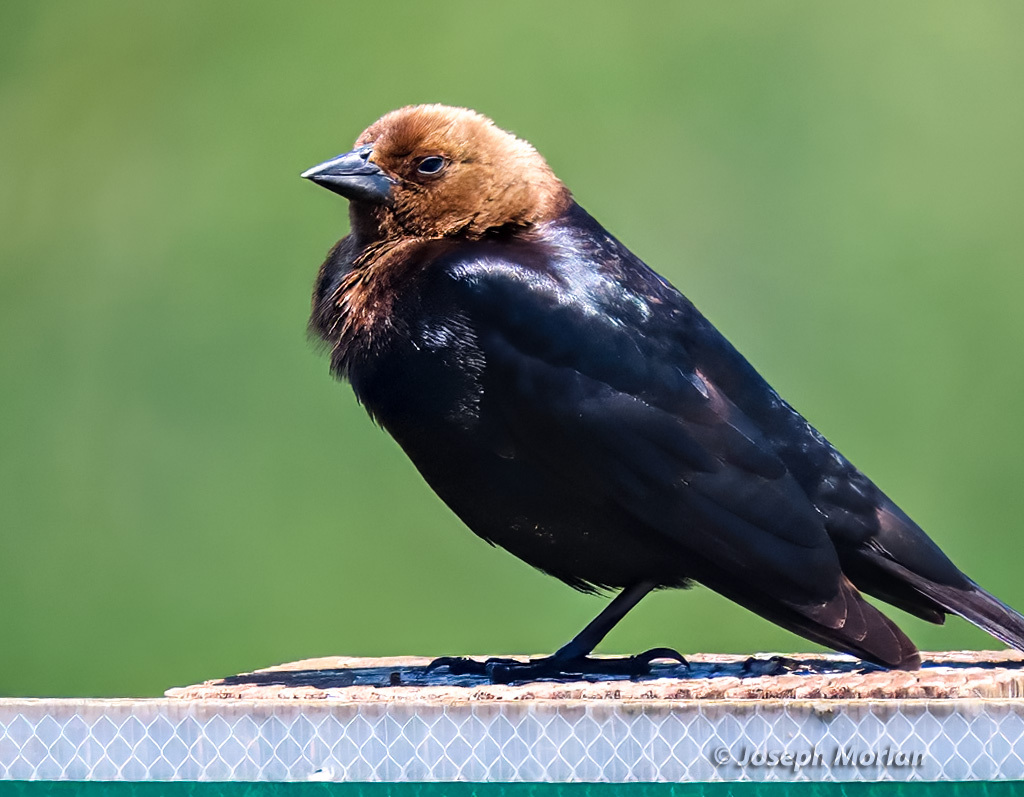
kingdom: Animalia
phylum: Chordata
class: Aves
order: Passeriformes
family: Icteridae
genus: Molothrus
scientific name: Molothrus ater
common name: Brown-headed cowbird
